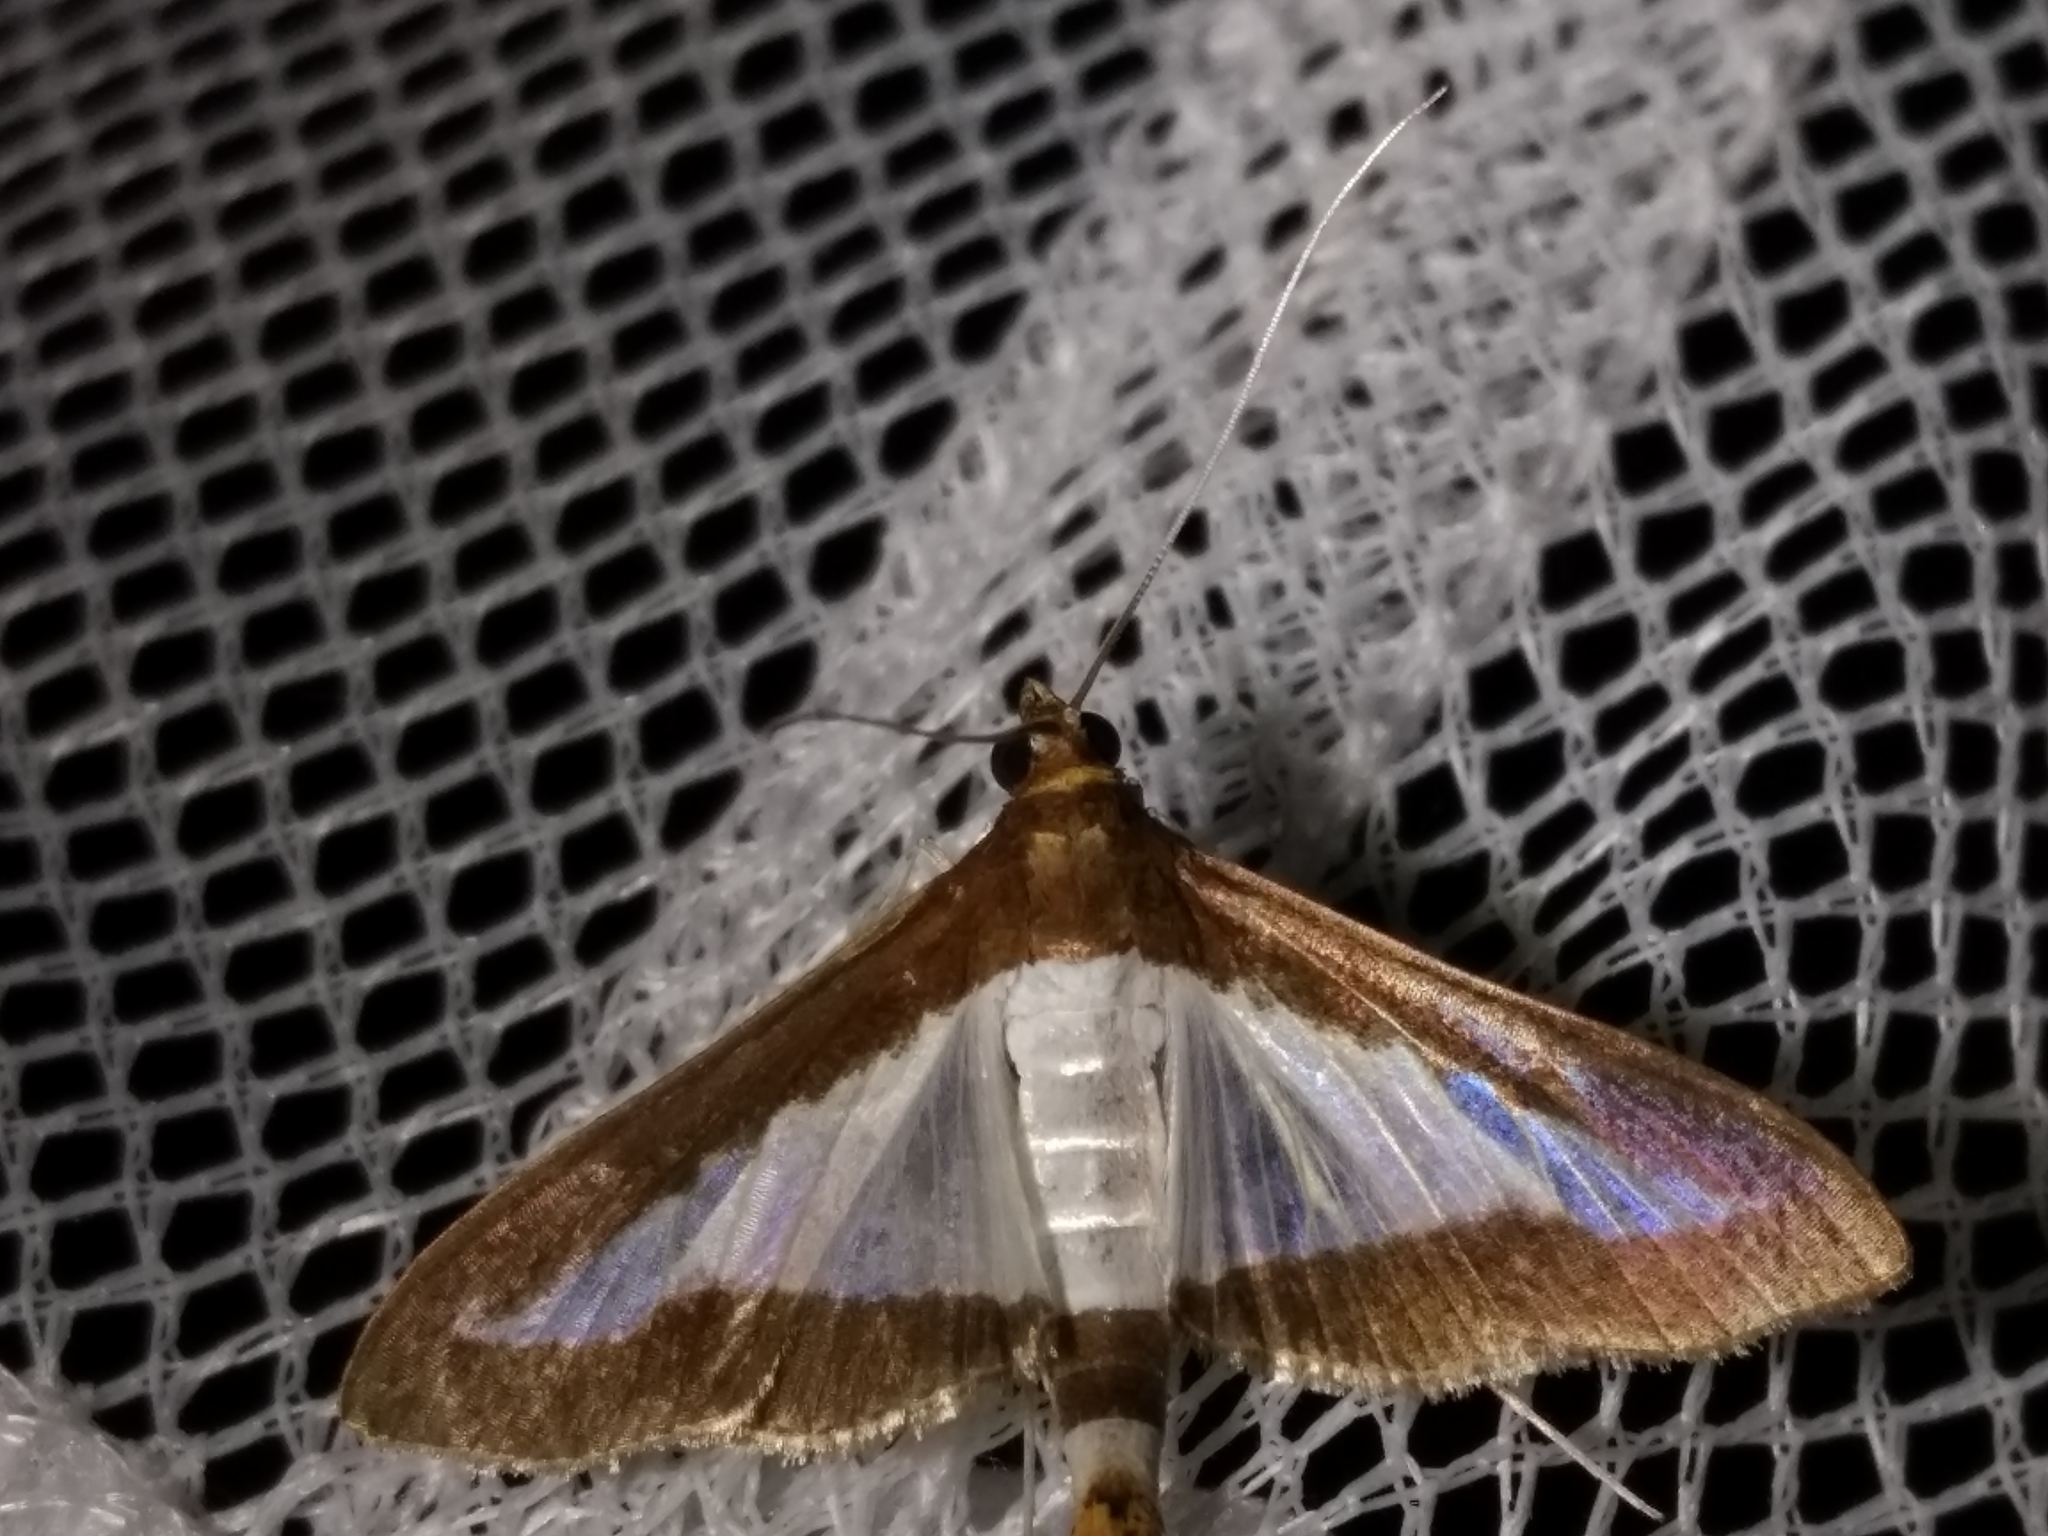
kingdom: Animalia
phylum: Arthropoda
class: Insecta
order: Lepidoptera
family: Crambidae
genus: Diaphania
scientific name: Diaphania indica
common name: Cucumber moth
